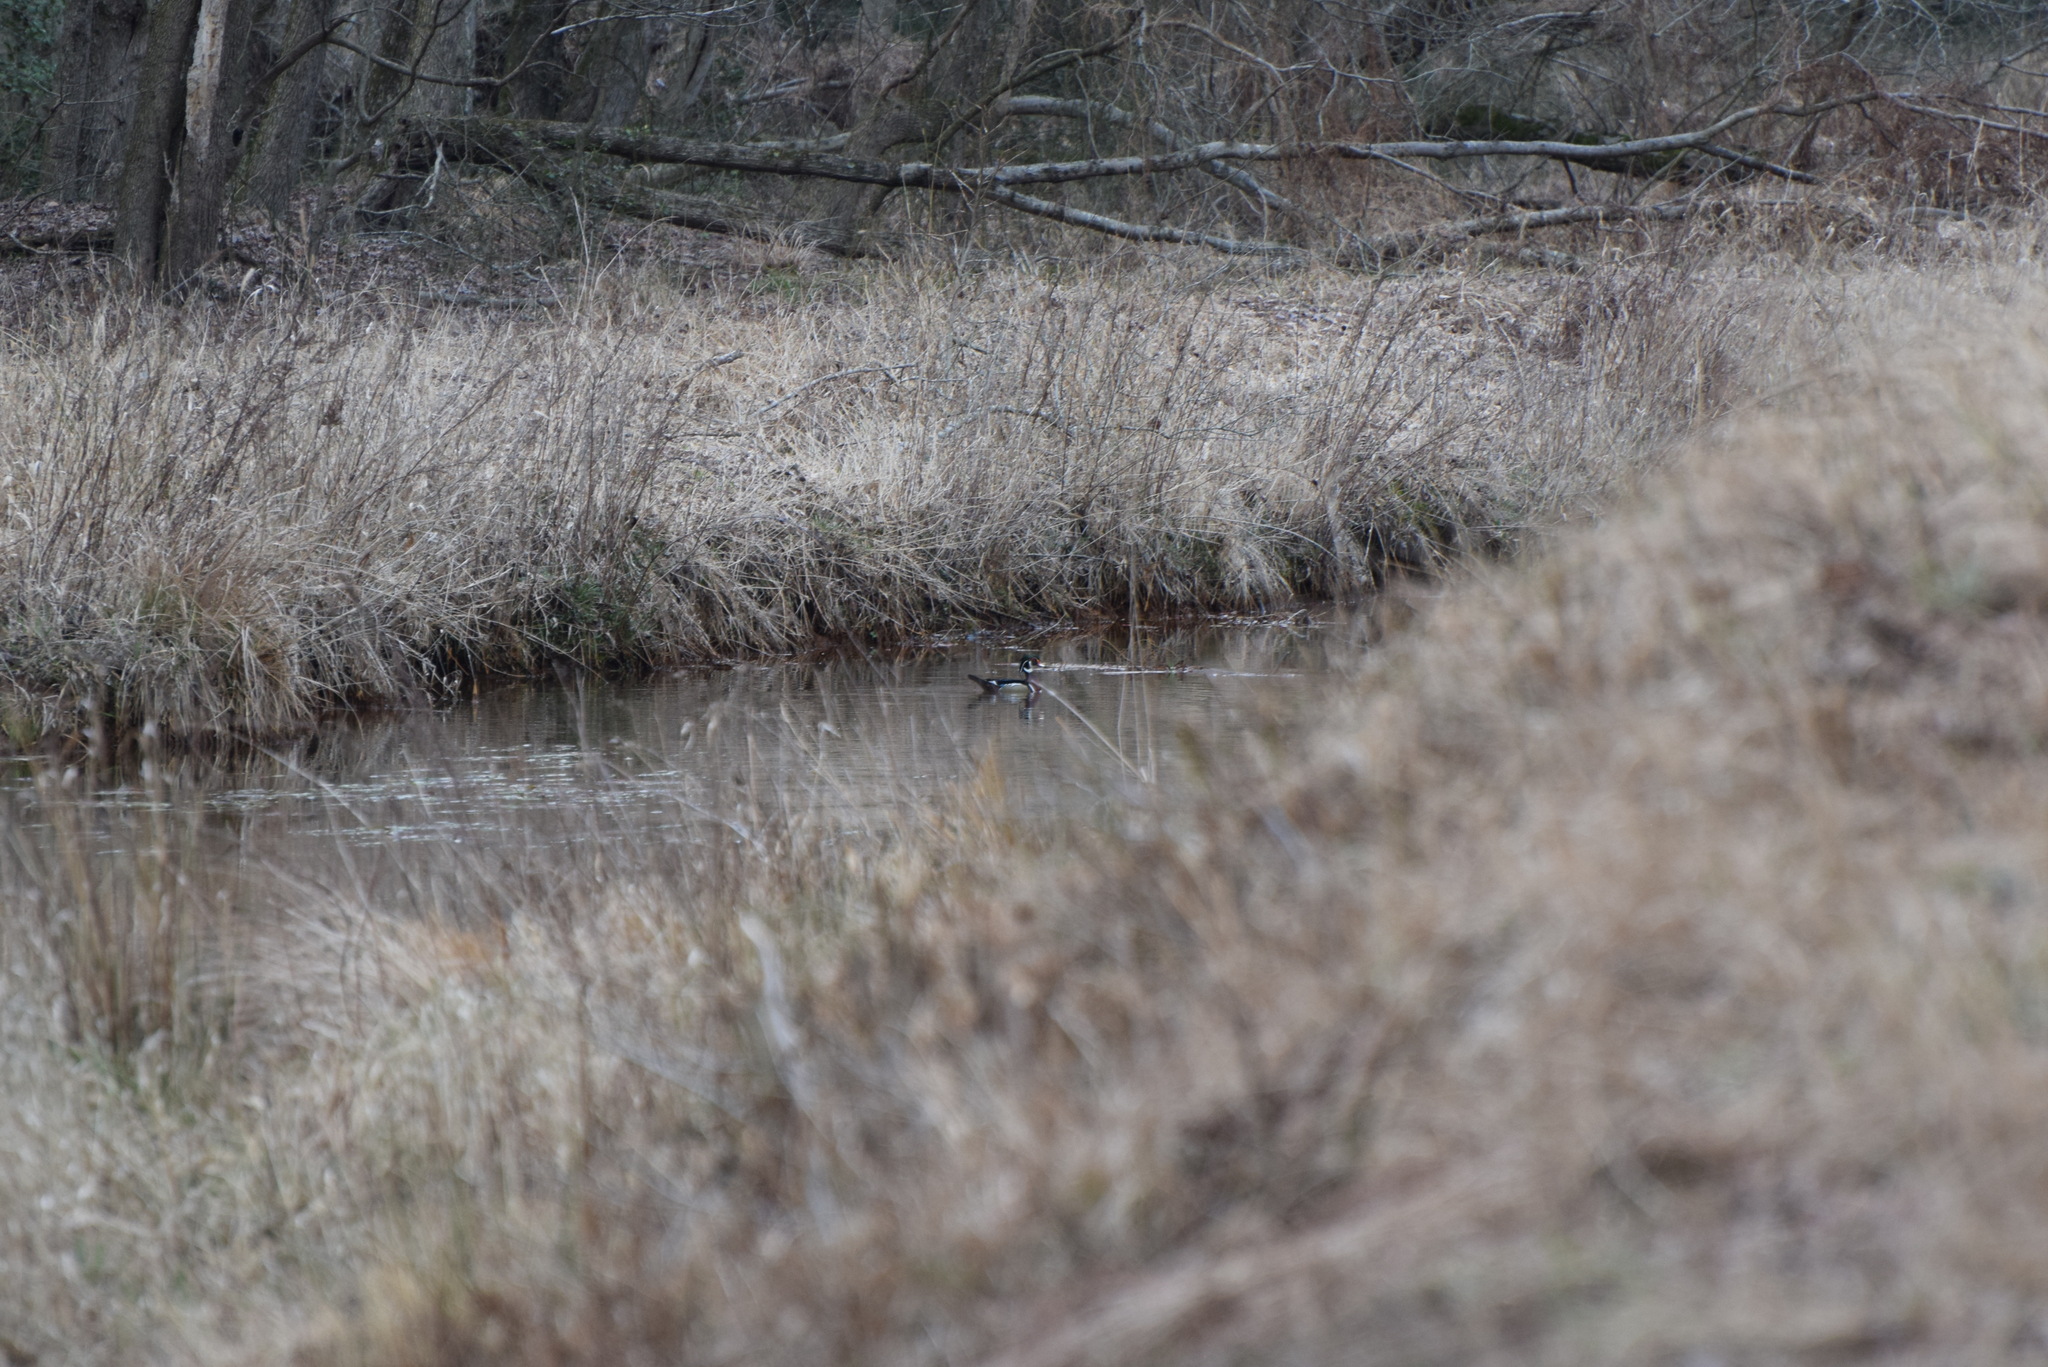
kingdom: Animalia
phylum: Chordata
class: Aves
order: Anseriformes
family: Anatidae
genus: Aix
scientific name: Aix sponsa
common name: Wood duck
